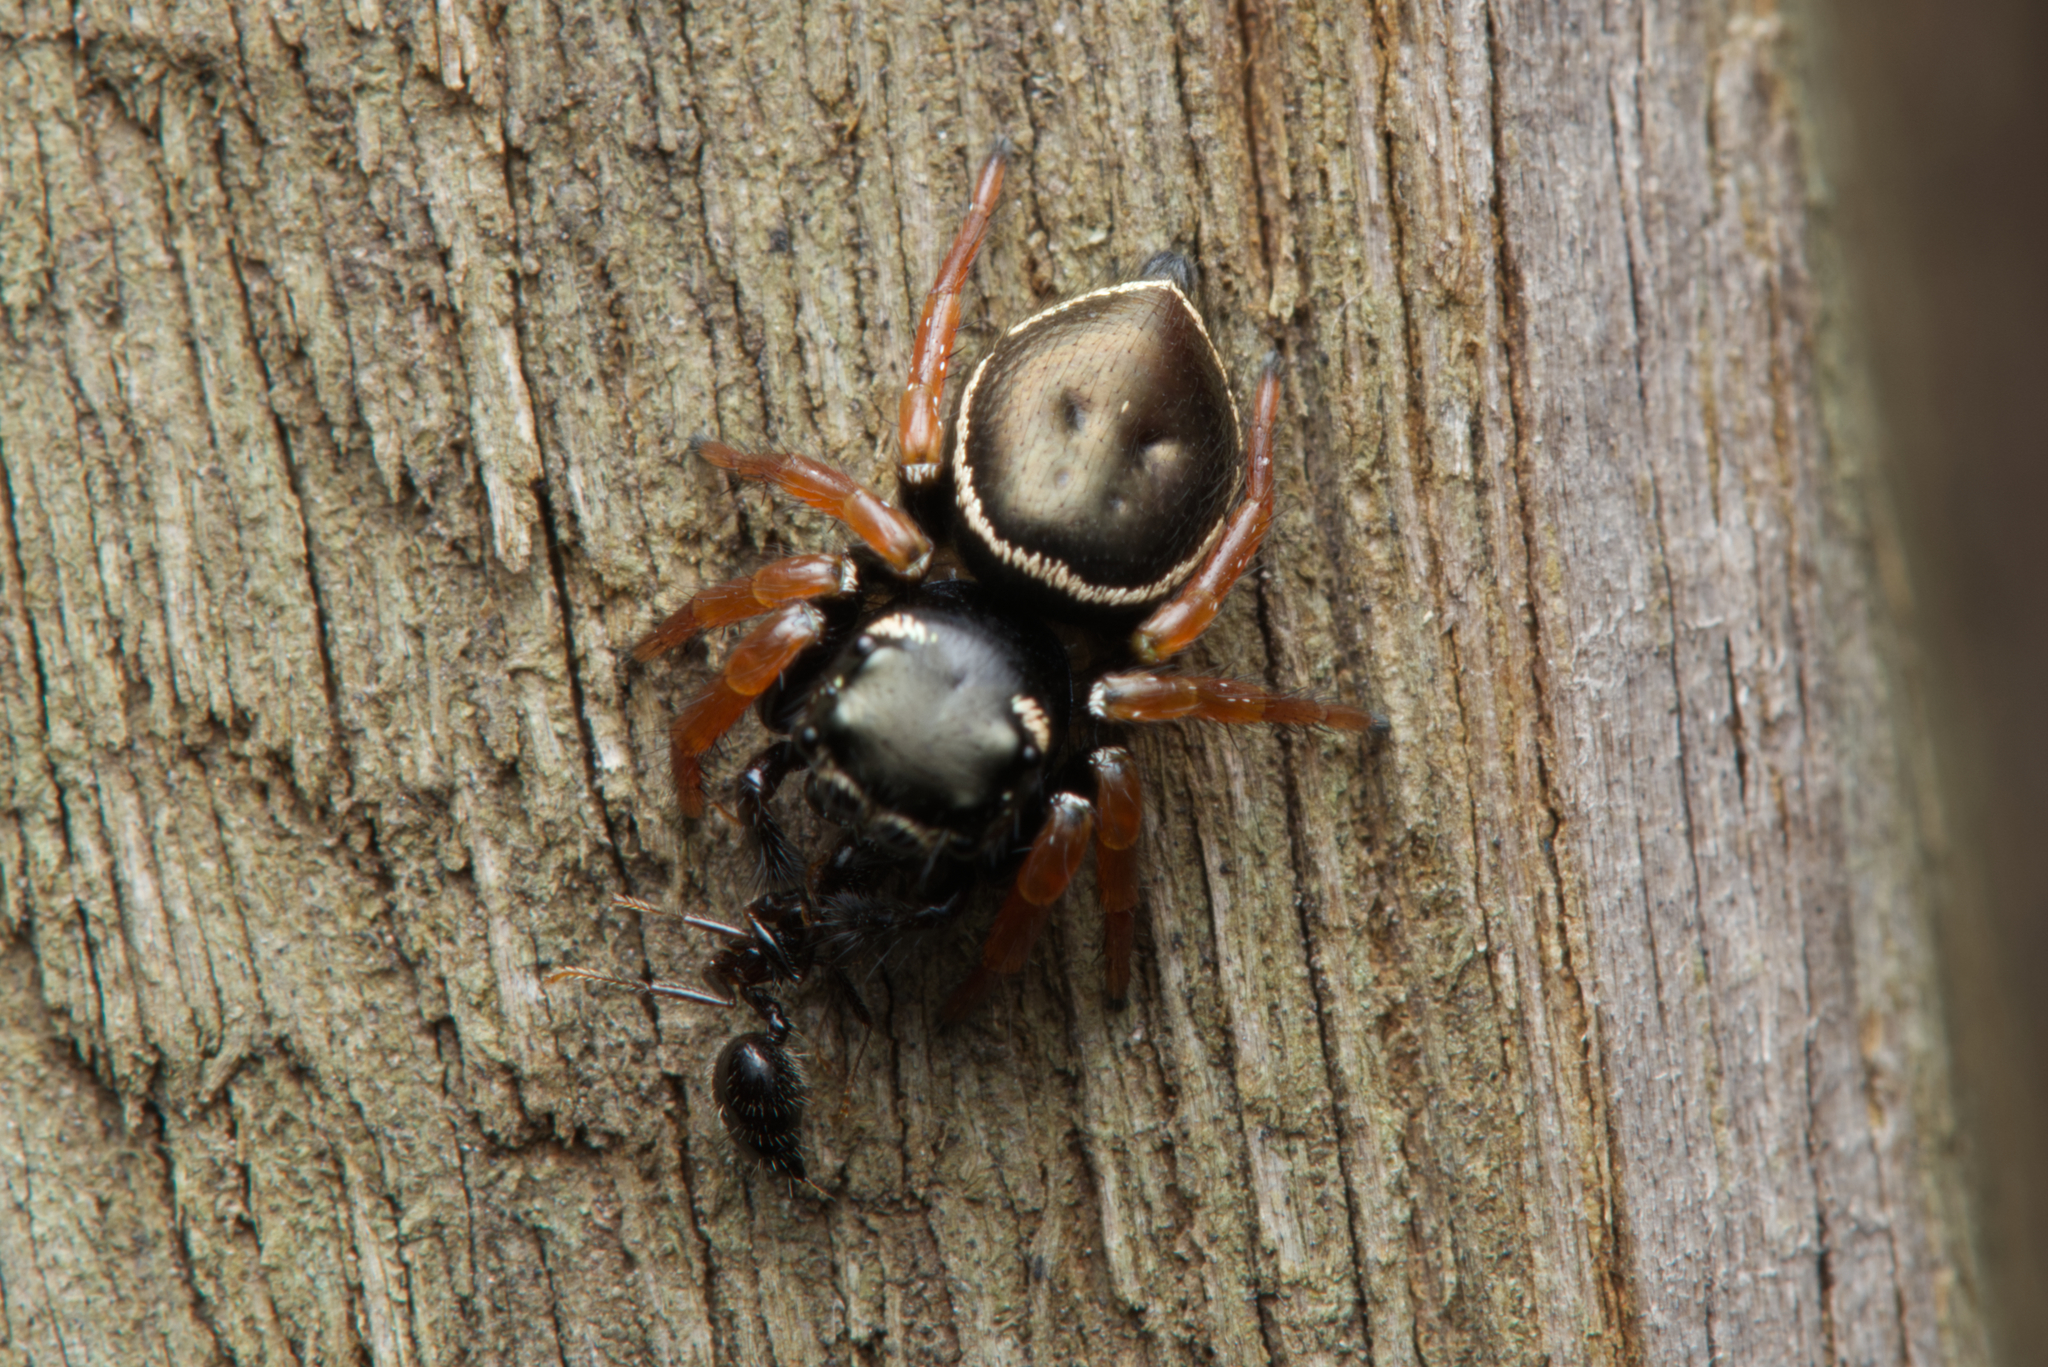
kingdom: Animalia
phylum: Arthropoda
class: Arachnida
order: Araneae
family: Salticidae
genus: Zenodorus
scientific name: Zenodorus orbiculatus
